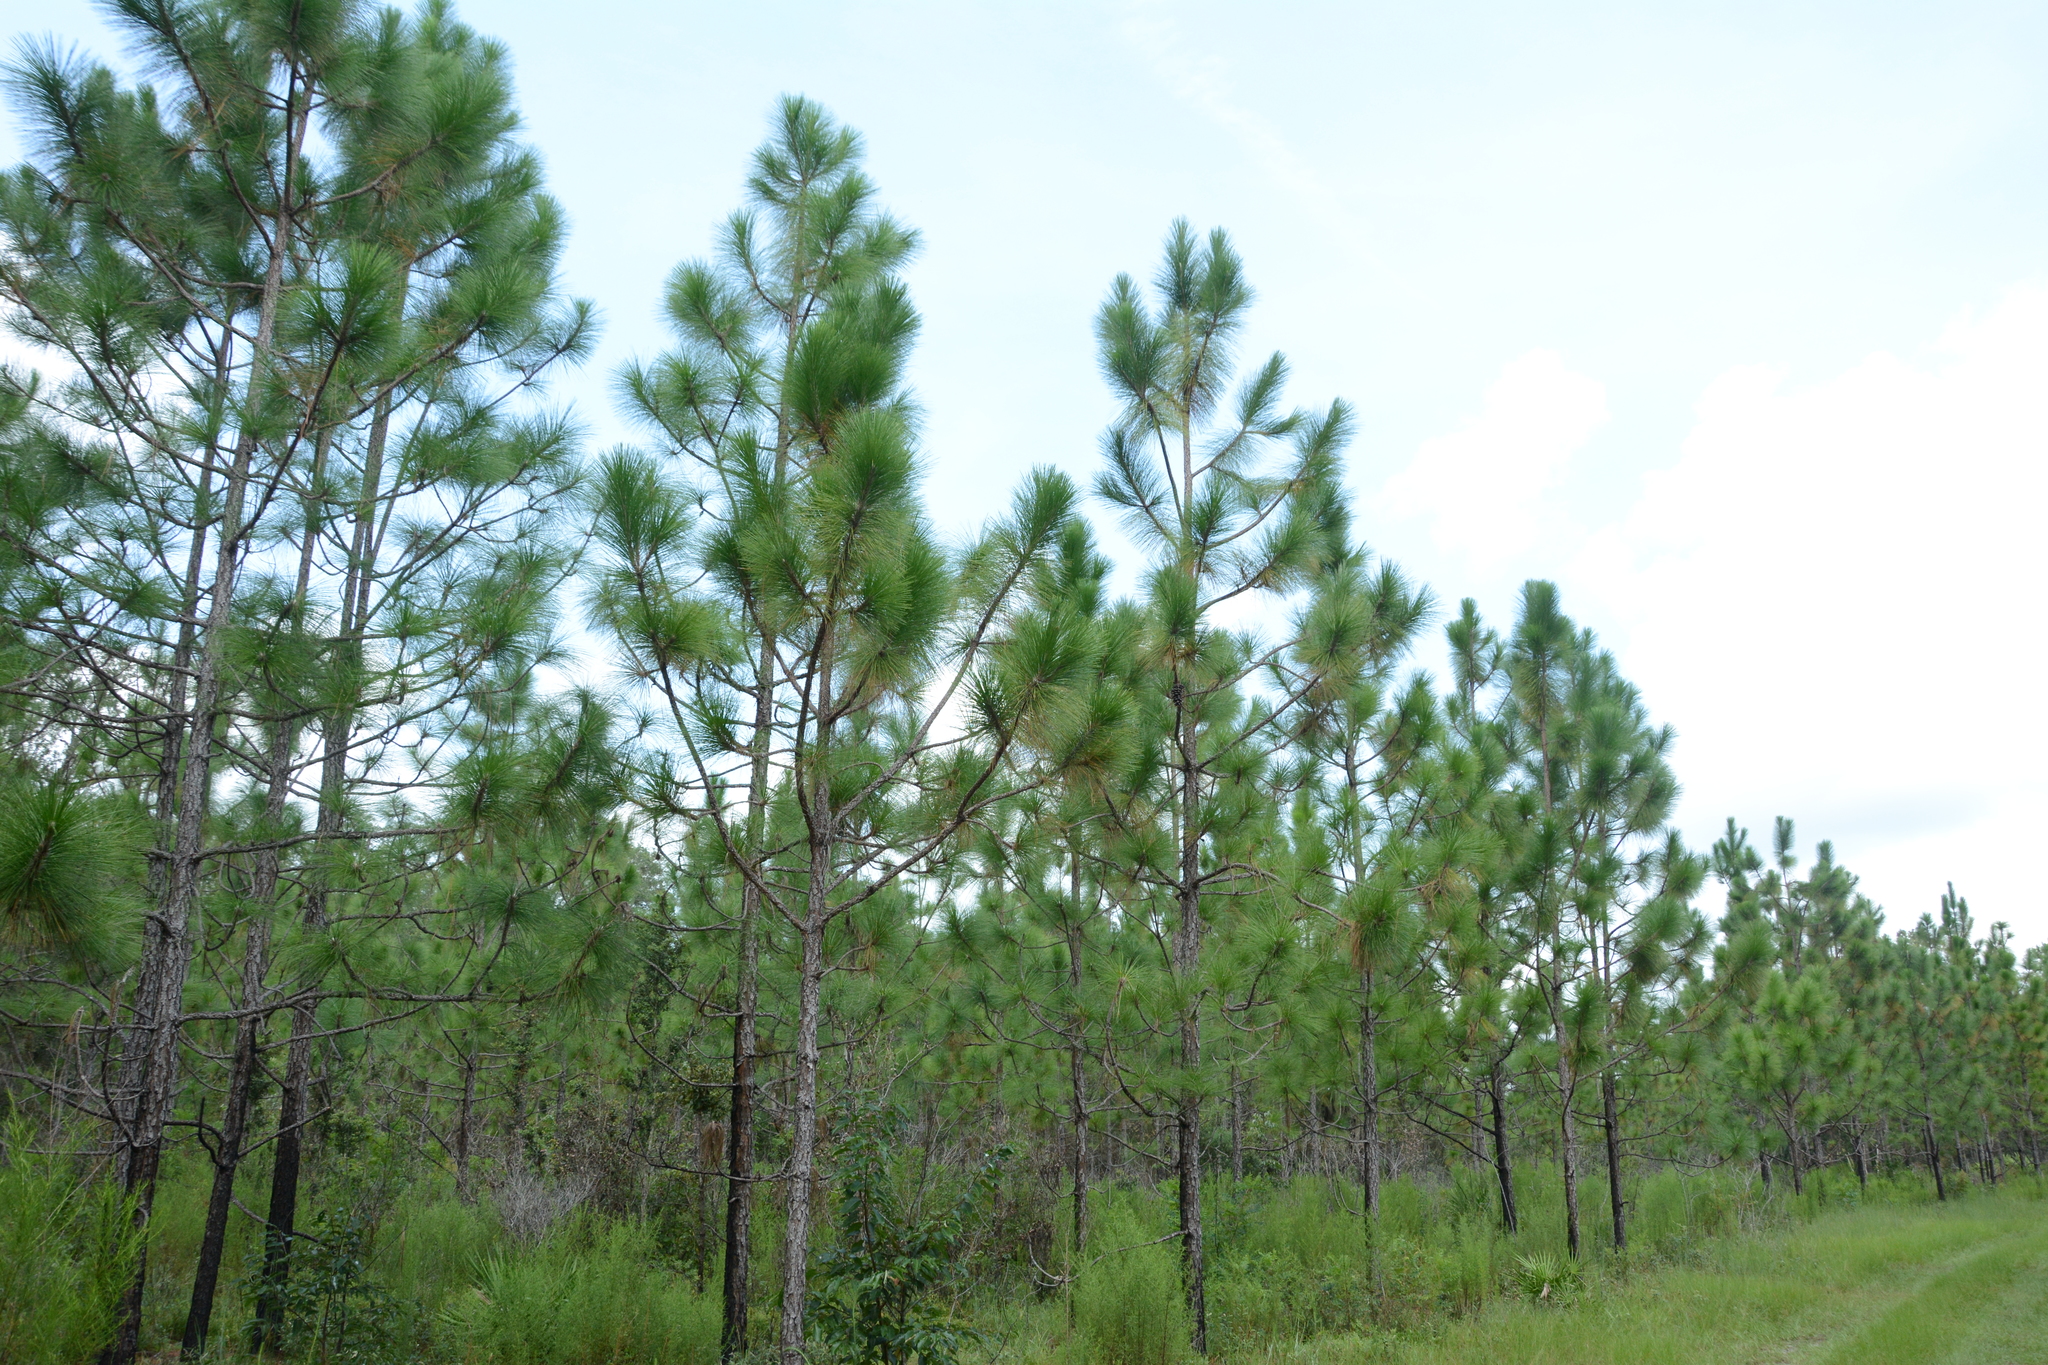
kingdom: Plantae
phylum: Tracheophyta
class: Pinopsida
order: Pinales
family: Pinaceae
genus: Pinus
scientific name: Pinus palustris
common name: Longleaf pine
